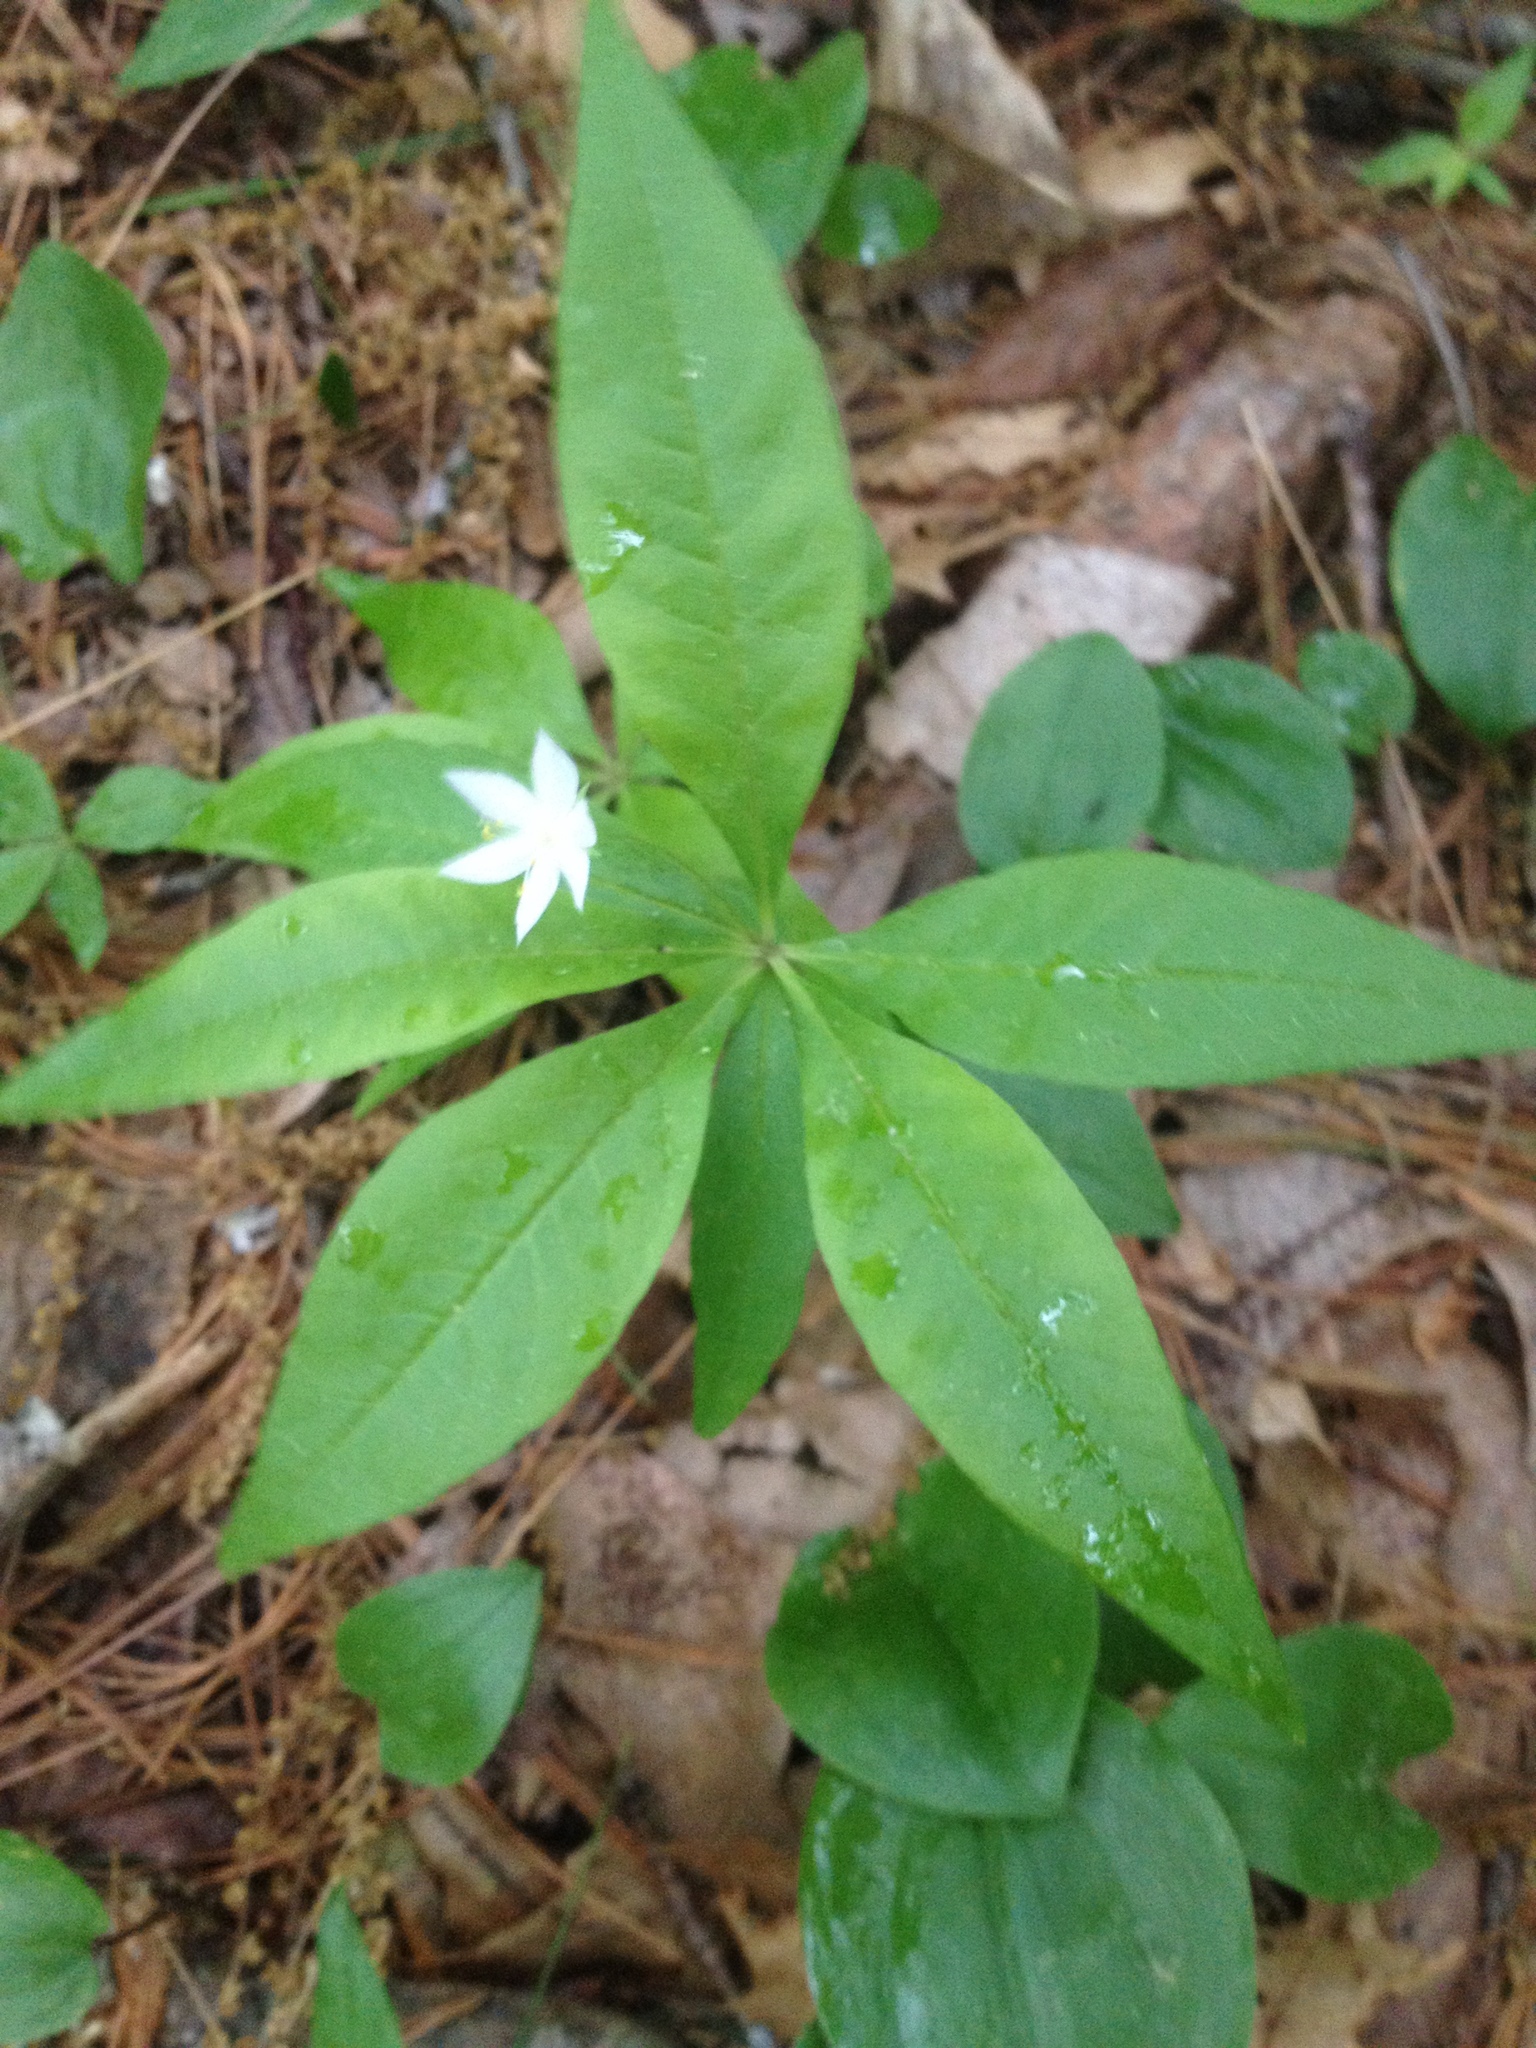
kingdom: Plantae
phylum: Tracheophyta
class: Magnoliopsida
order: Ericales
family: Primulaceae
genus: Lysimachia
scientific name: Lysimachia borealis
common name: American starflower
